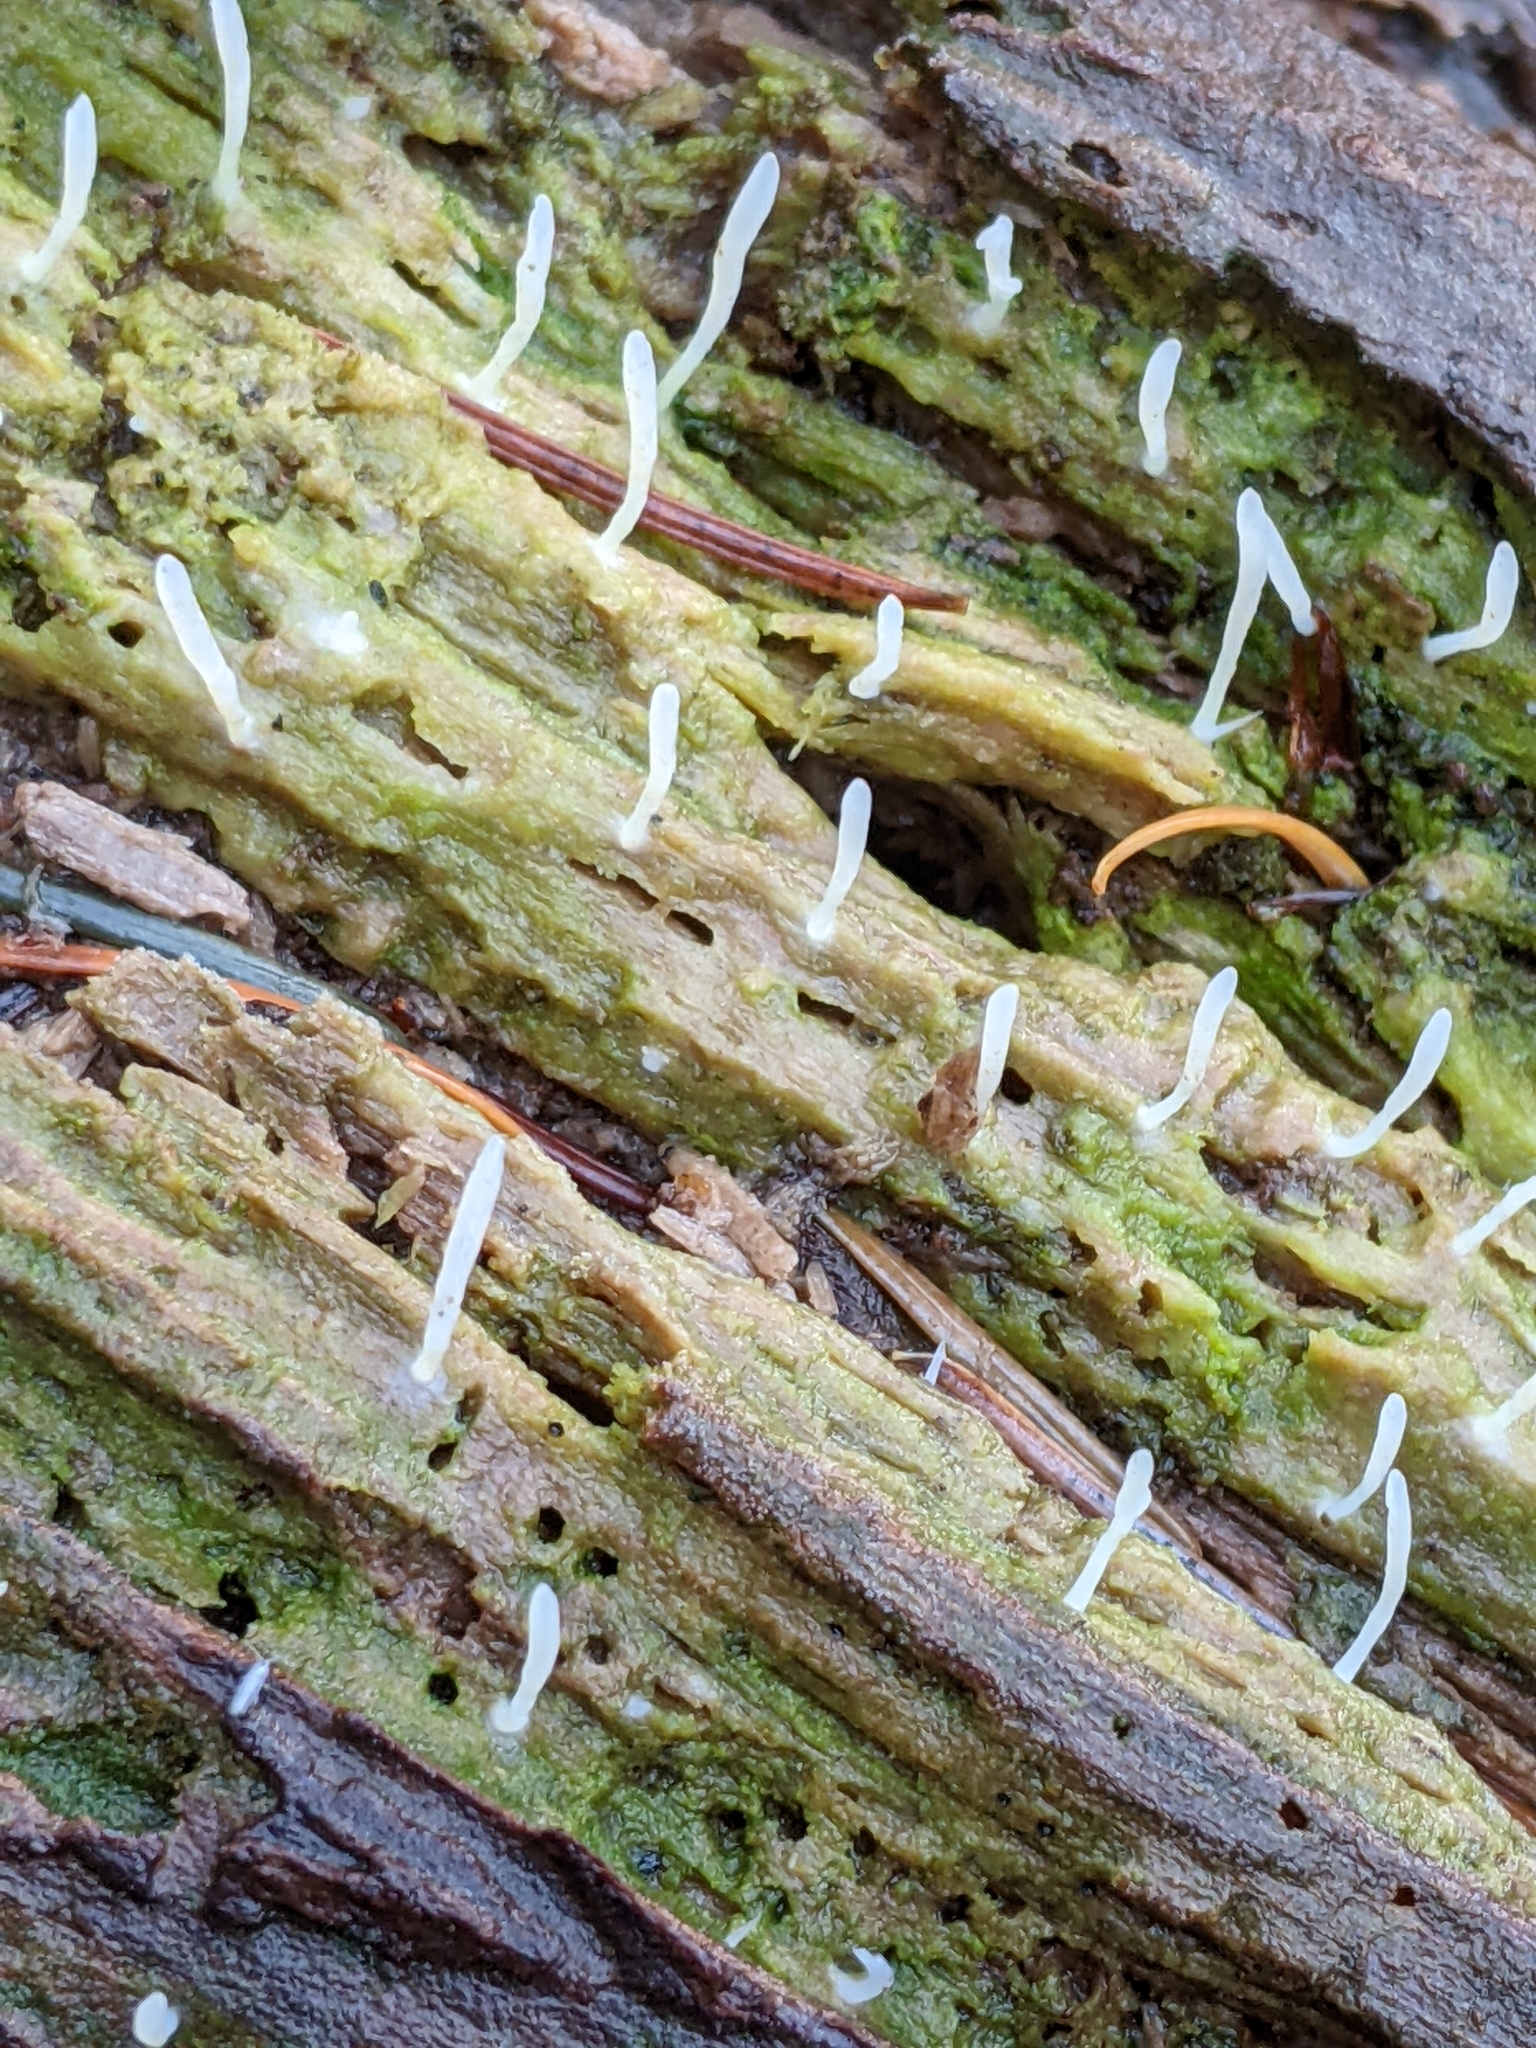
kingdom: Fungi
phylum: Basidiomycota
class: Agaricomycetes
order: Cantharellales
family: Hydnaceae
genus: Multiclavula
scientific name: Multiclavula mucida
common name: White green-algae coral
